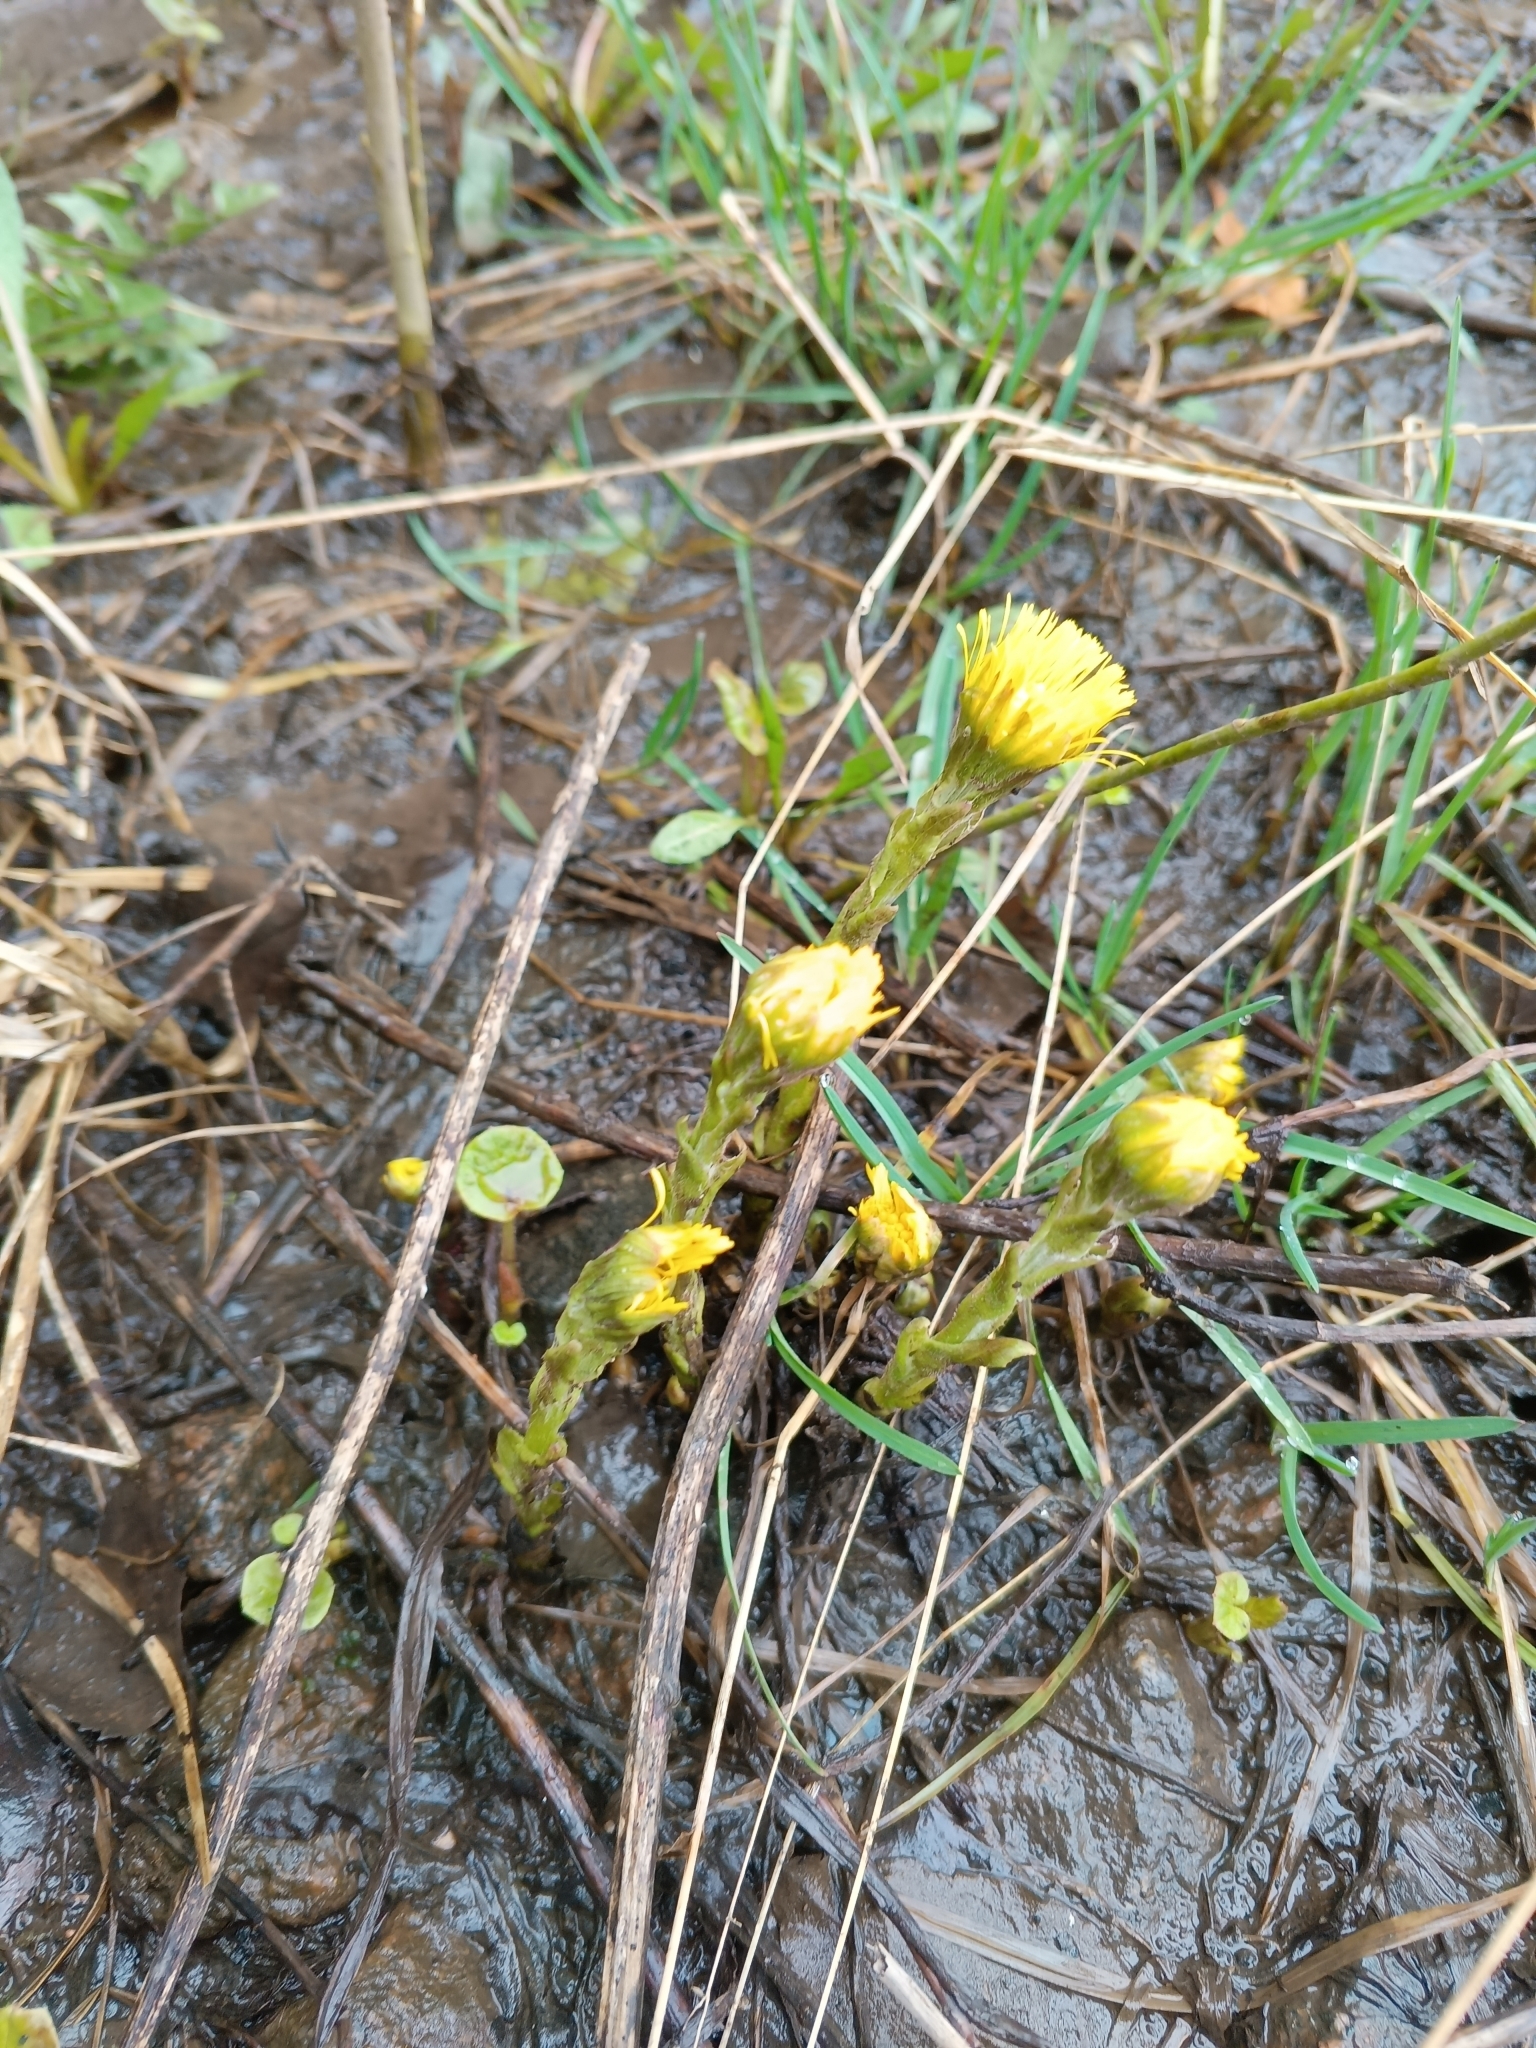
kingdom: Plantae
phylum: Tracheophyta
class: Magnoliopsida
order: Asterales
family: Asteraceae
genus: Tussilago
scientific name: Tussilago farfara
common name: Coltsfoot
